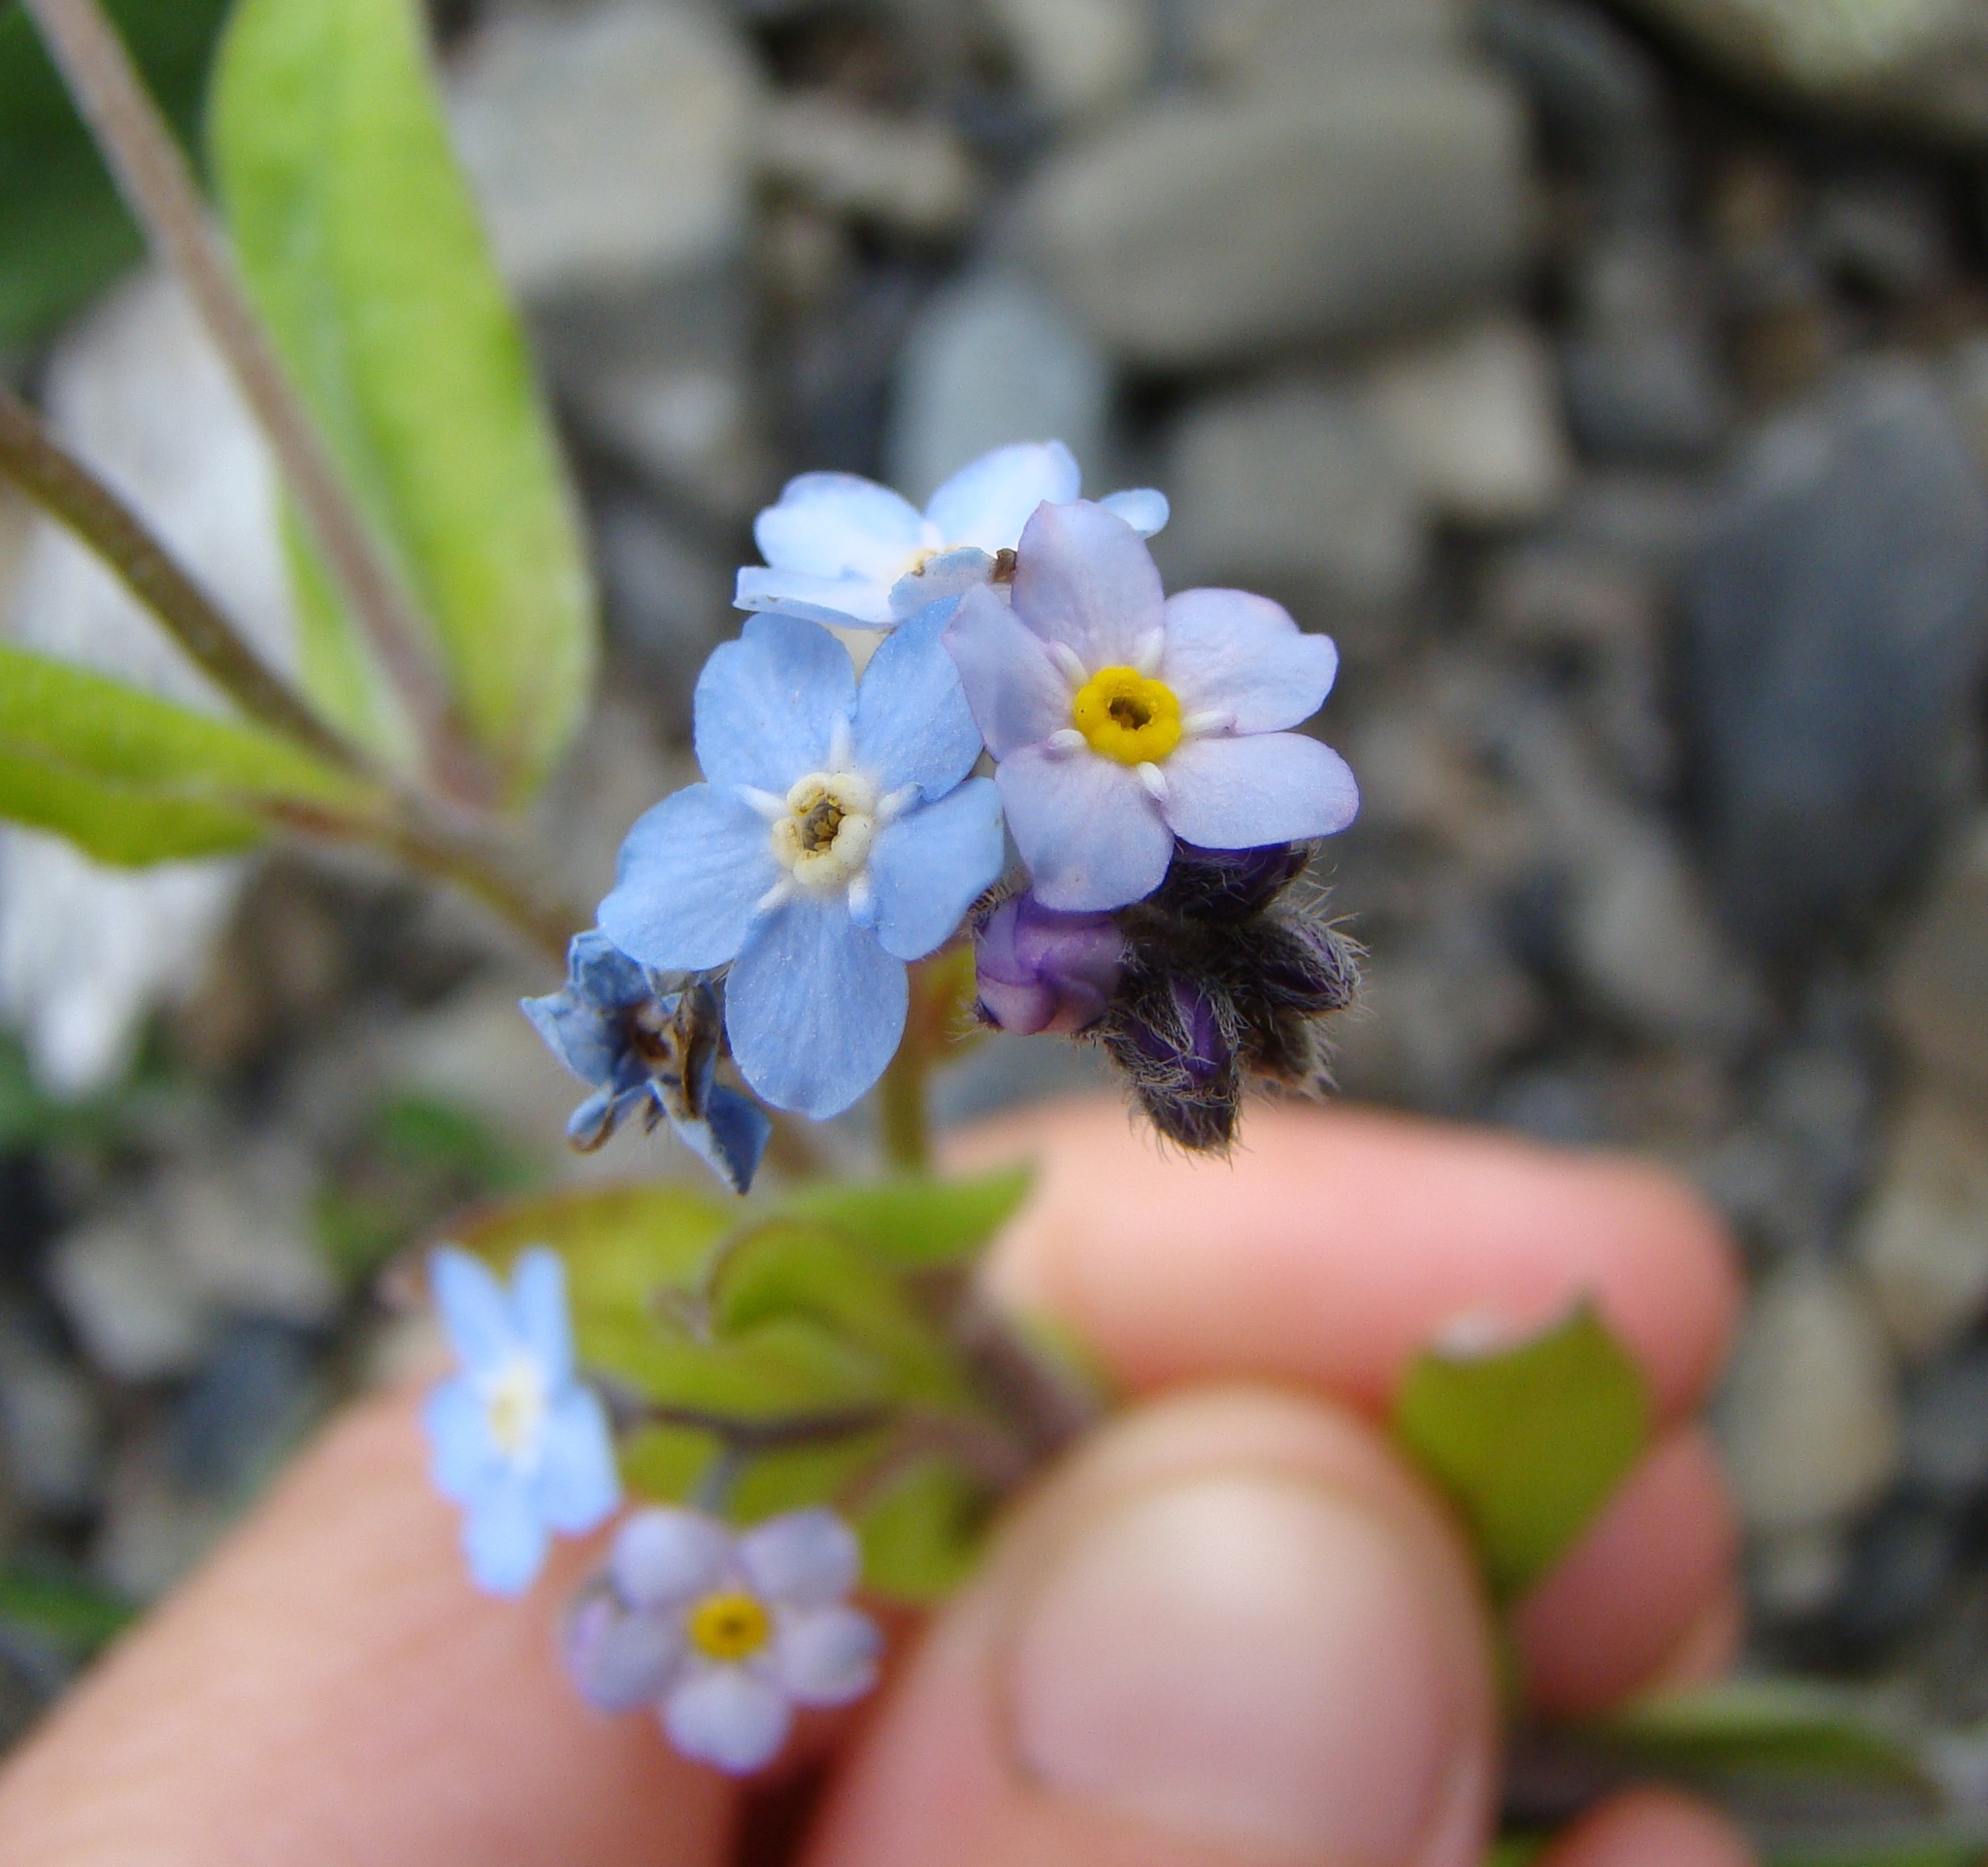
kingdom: Plantae
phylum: Tracheophyta
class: Magnoliopsida
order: Boraginales
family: Boraginaceae
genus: Myosotis
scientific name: Myosotis arvensis
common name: Field forget-me-not
